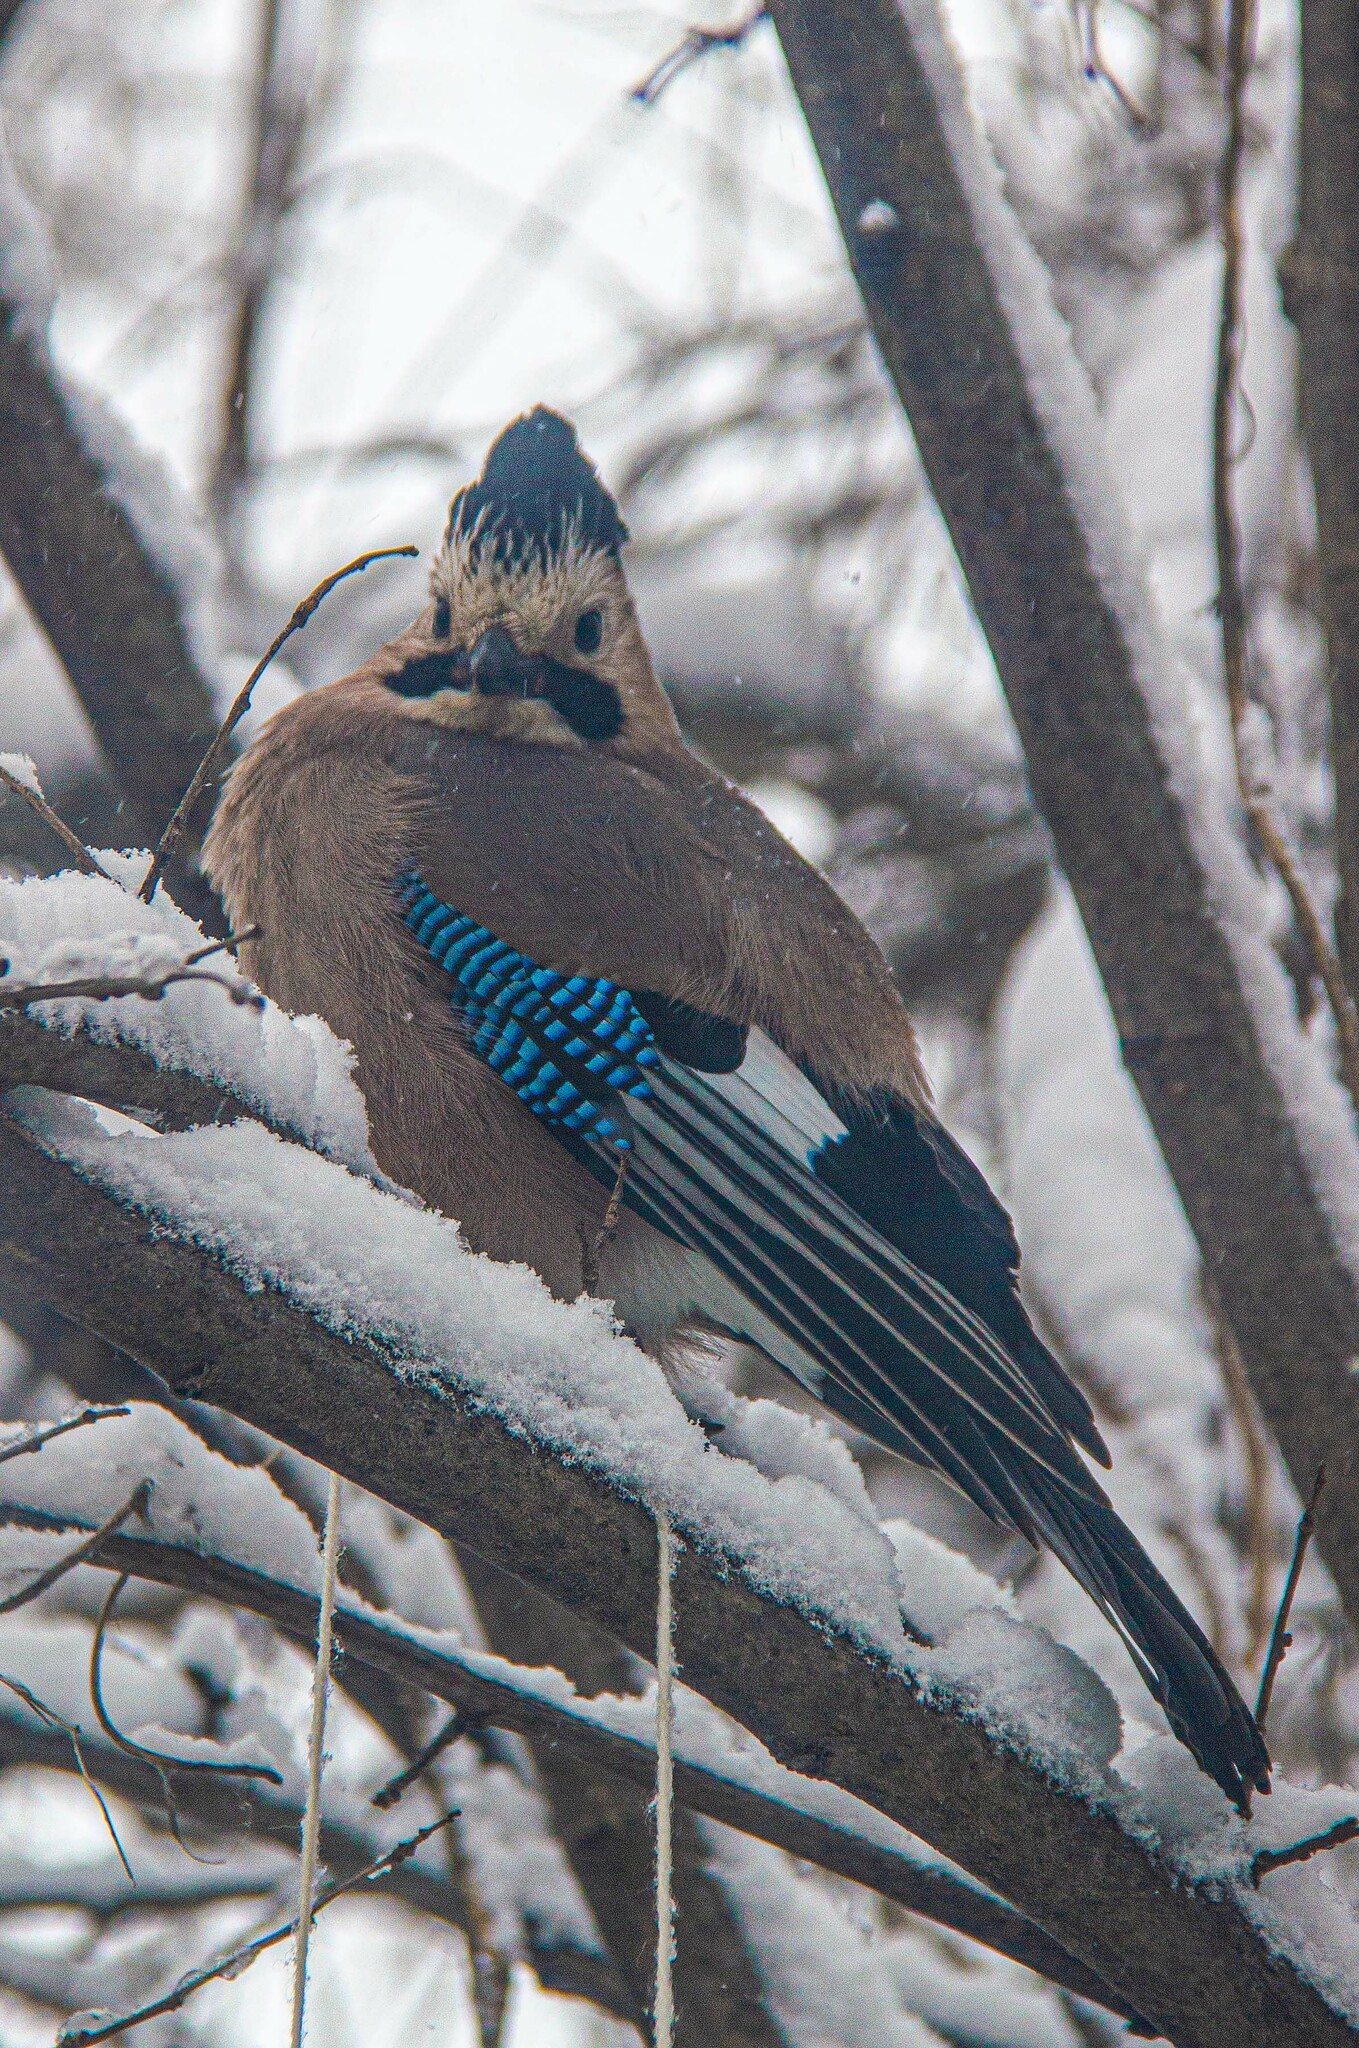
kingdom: Animalia
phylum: Chordata
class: Aves
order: Passeriformes
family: Corvidae
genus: Garrulus
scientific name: Garrulus glandarius
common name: Eurasian jay
